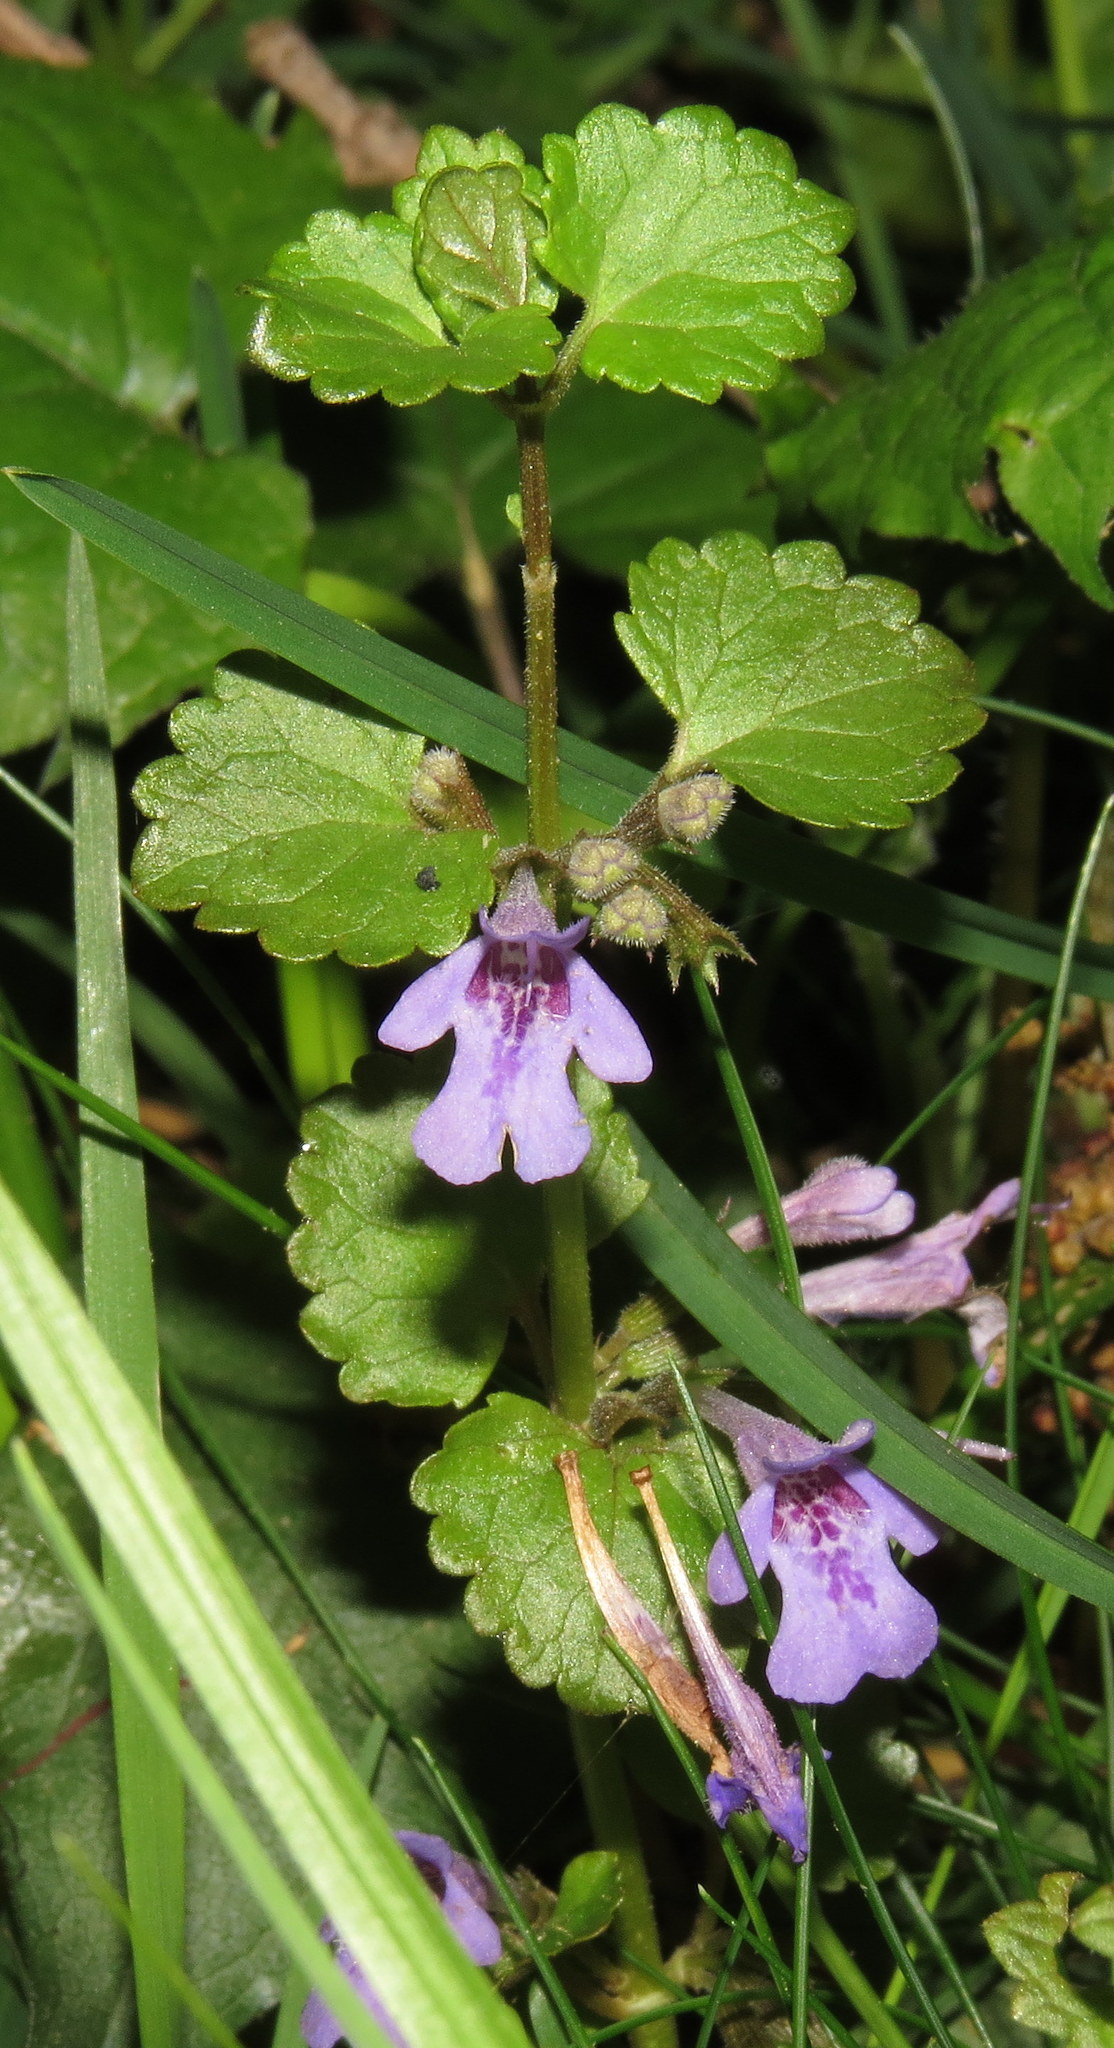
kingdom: Plantae
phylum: Tracheophyta
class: Magnoliopsida
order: Lamiales
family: Lamiaceae
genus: Glechoma
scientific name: Glechoma hederacea
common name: Ground ivy
